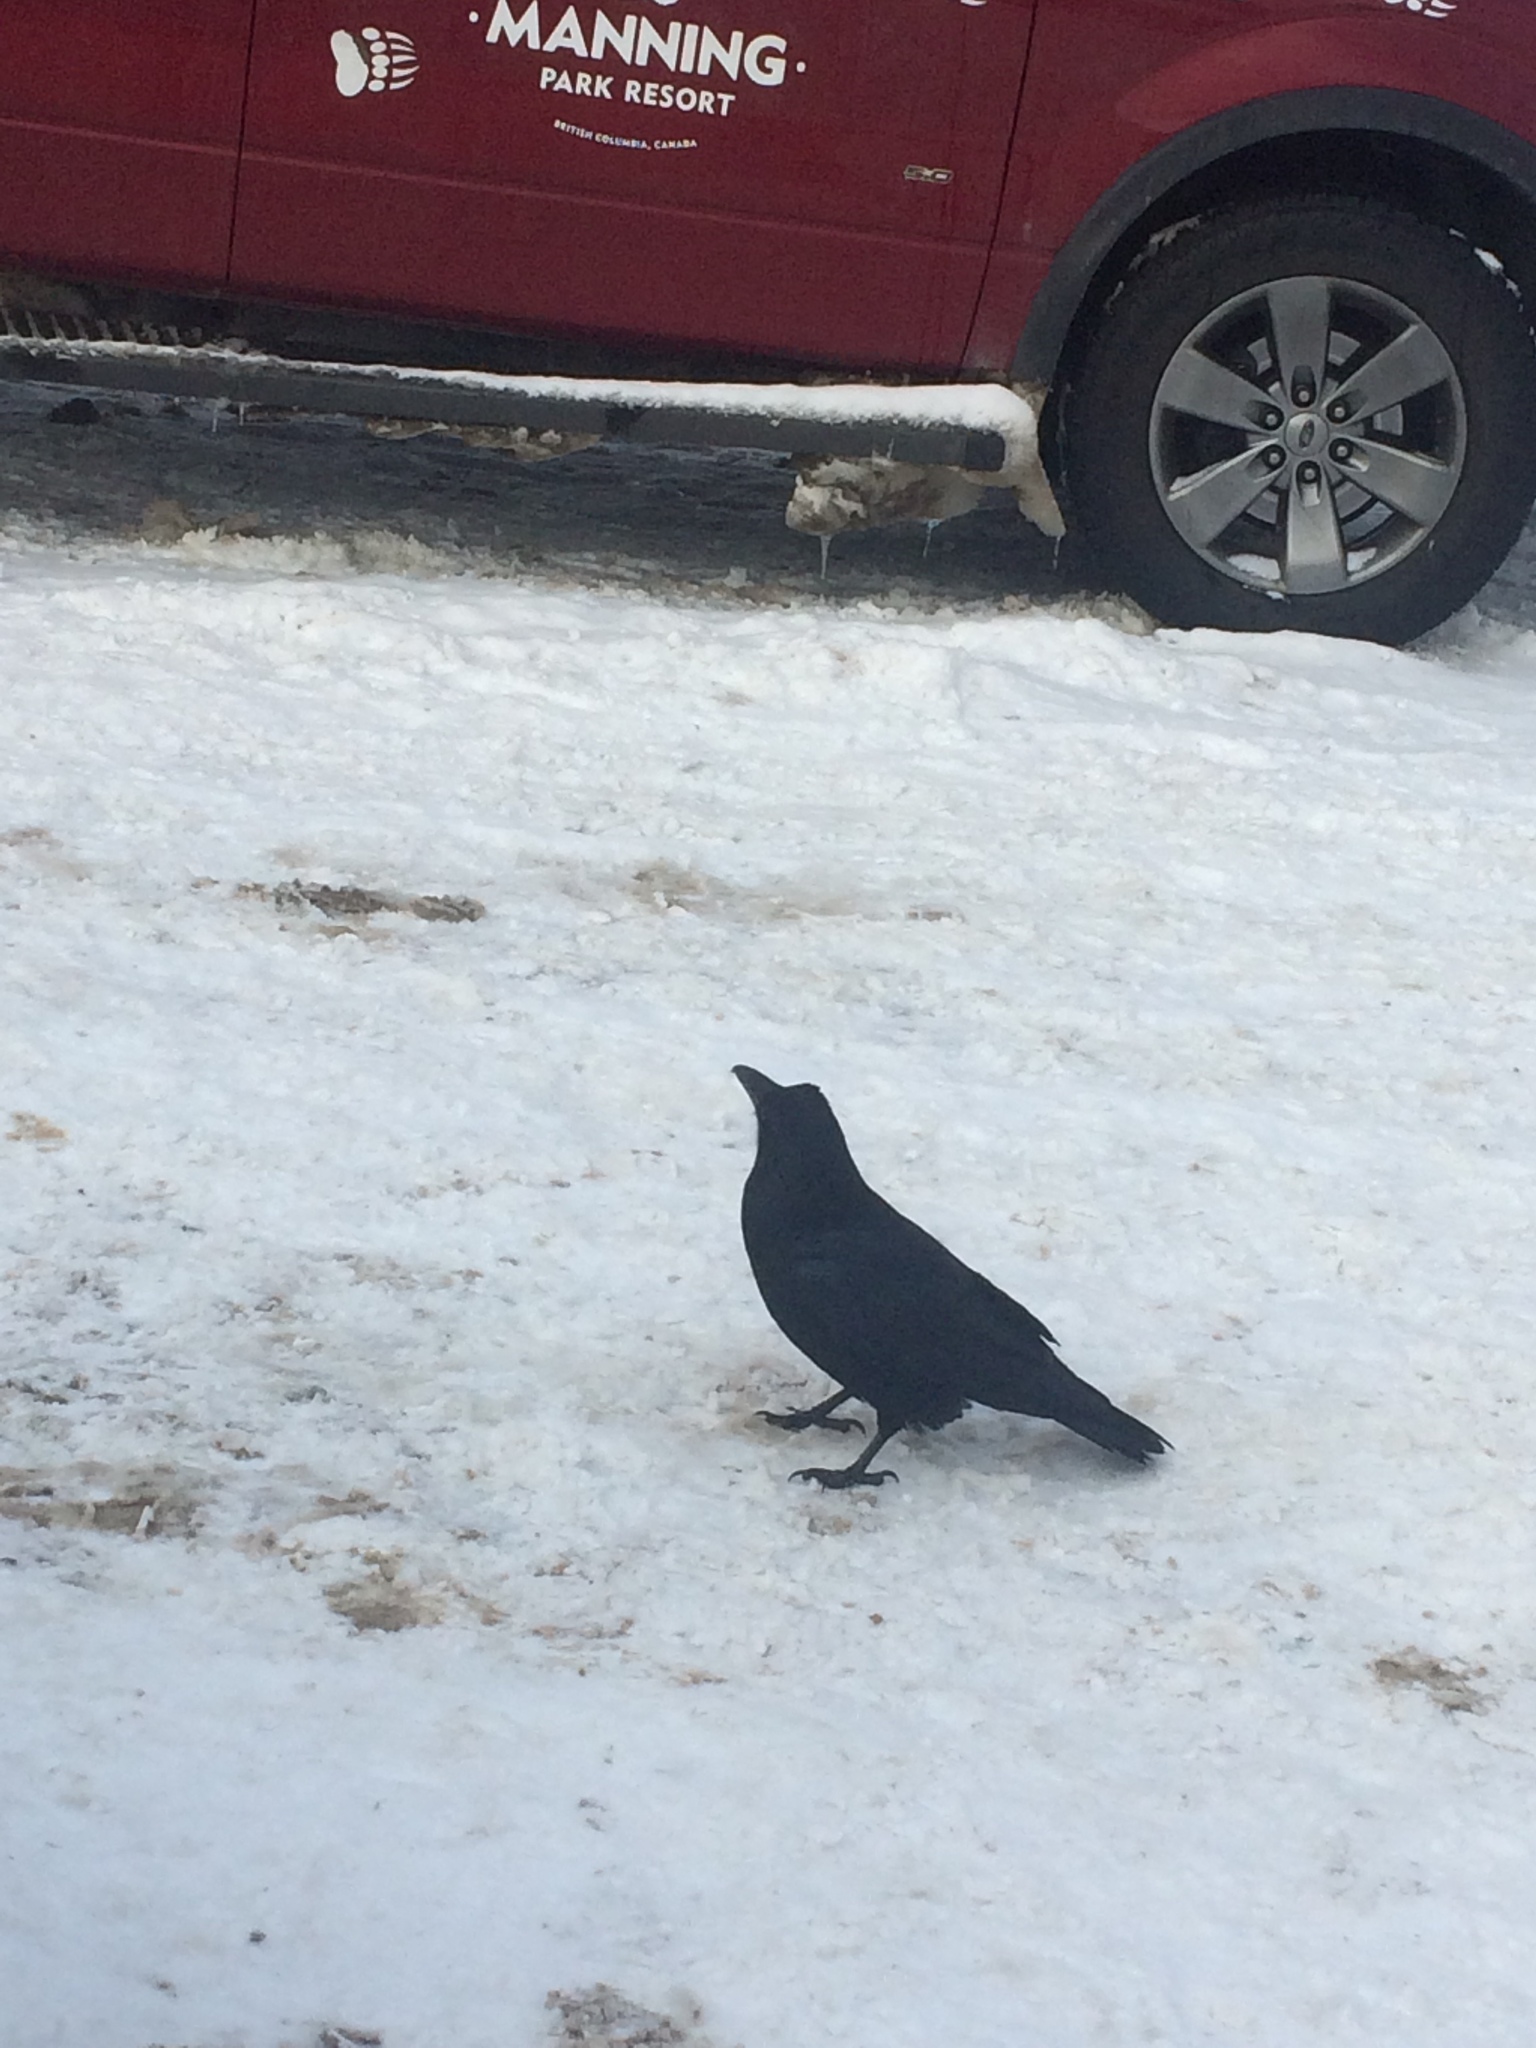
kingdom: Animalia
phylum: Chordata
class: Aves
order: Passeriformes
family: Corvidae
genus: Corvus
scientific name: Corvus corax
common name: Common raven
